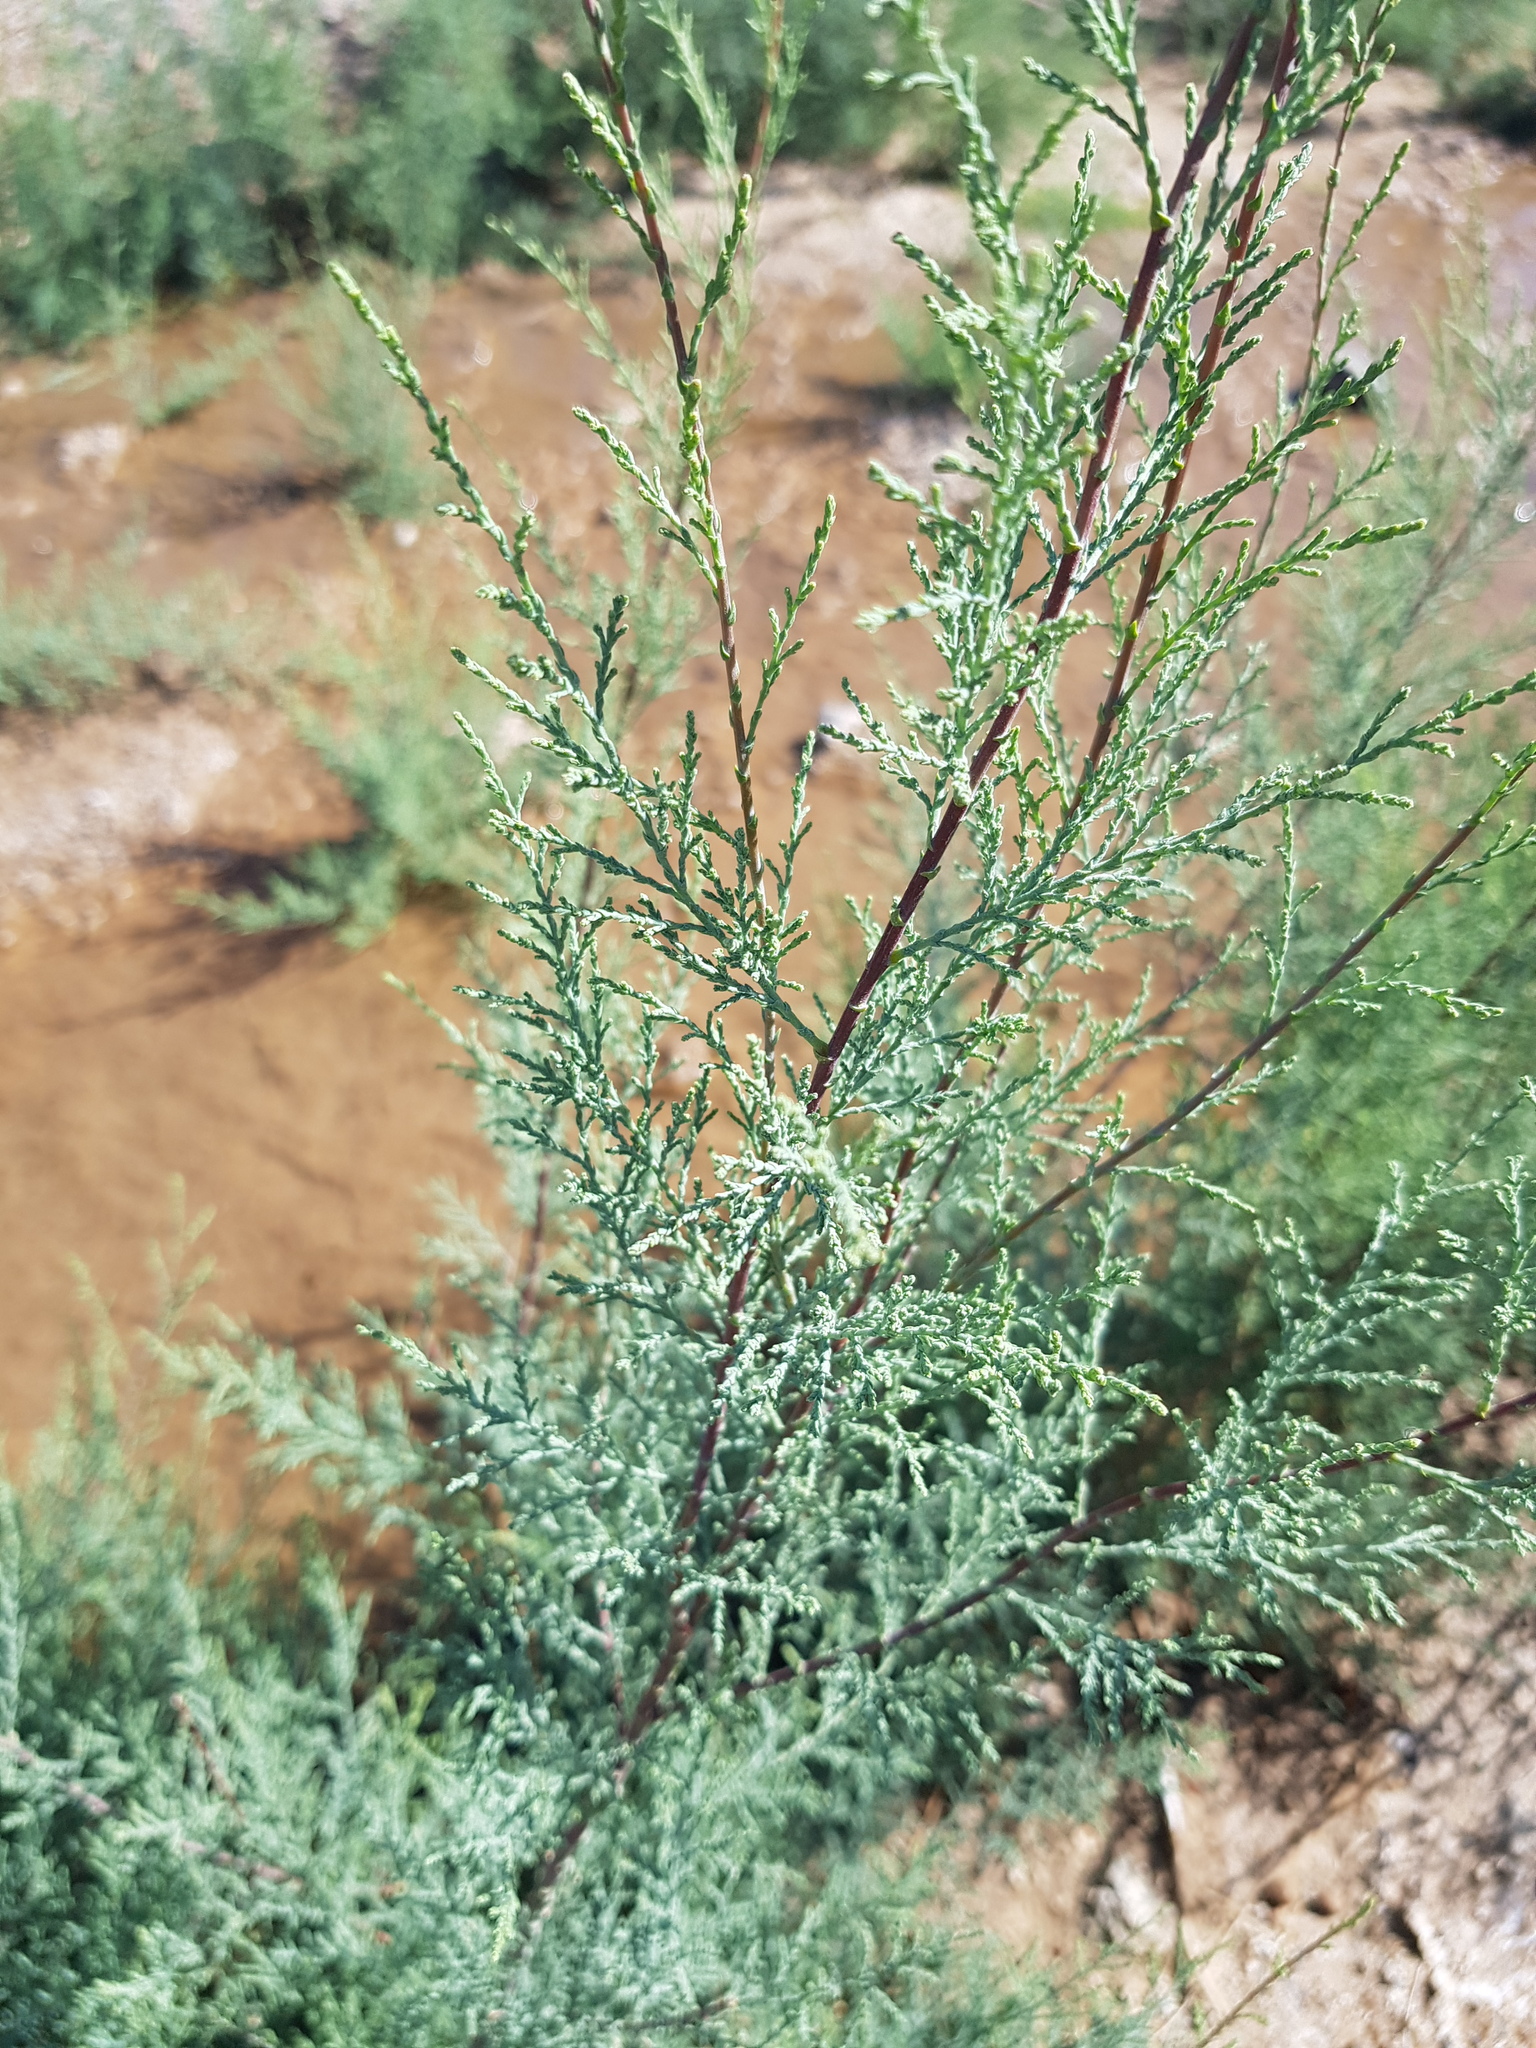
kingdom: Plantae
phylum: Tracheophyta
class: Magnoliopsida
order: Caryophyllales
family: Tamaricaceae
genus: Tamarix
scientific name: Tamarix gracilis
